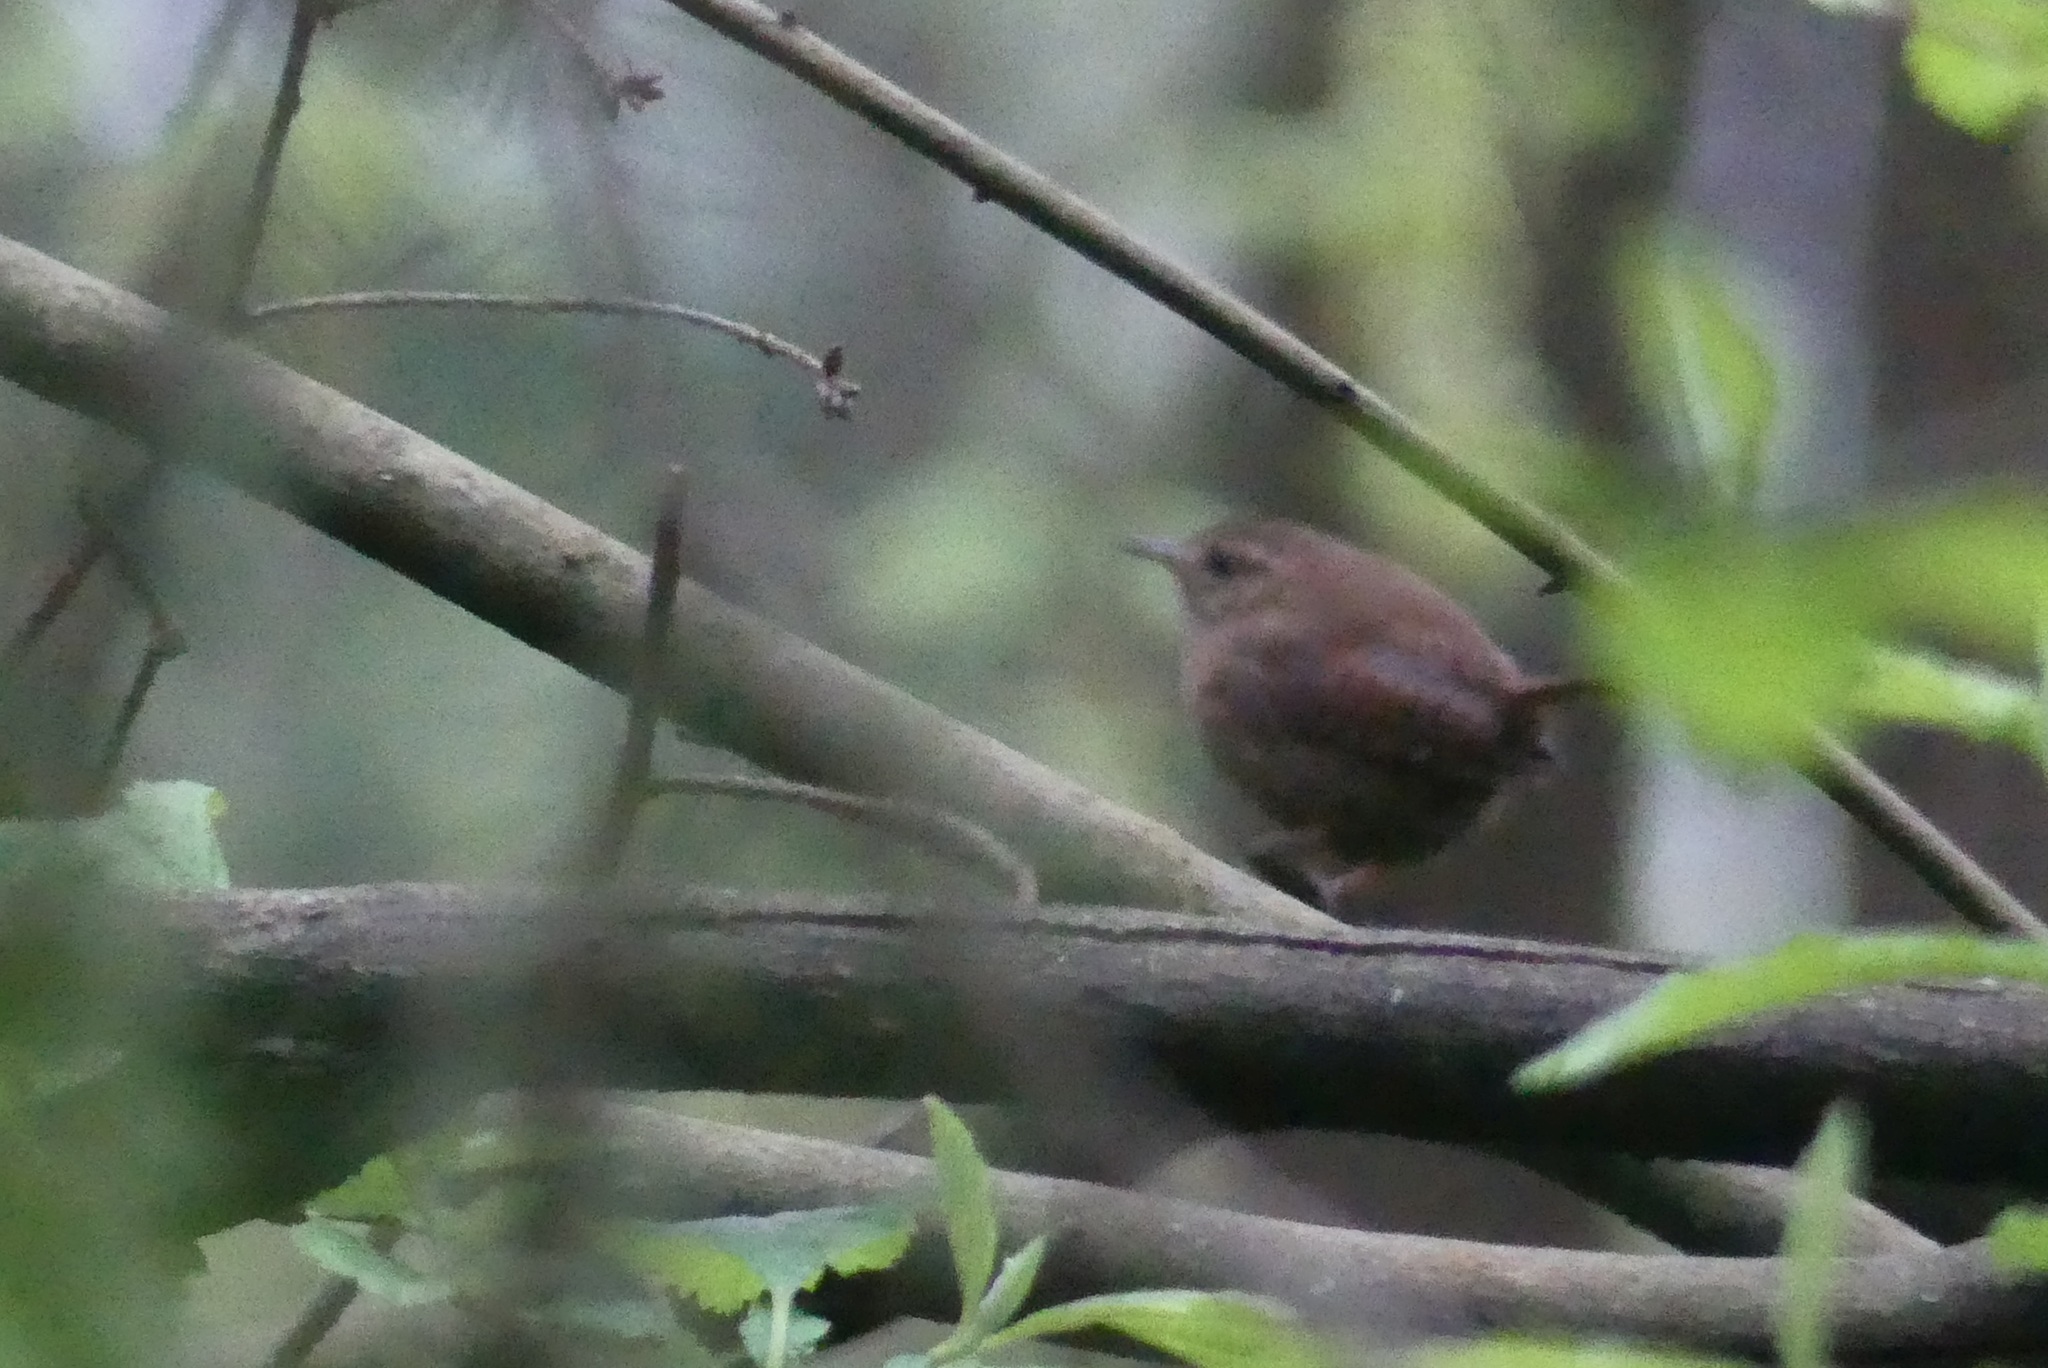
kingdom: Animalia
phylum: Chordata
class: Aves
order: Passeriformes
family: Troglodytidae
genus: Troglodytes
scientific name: Troglodytes pacificus
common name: Pacific wren
